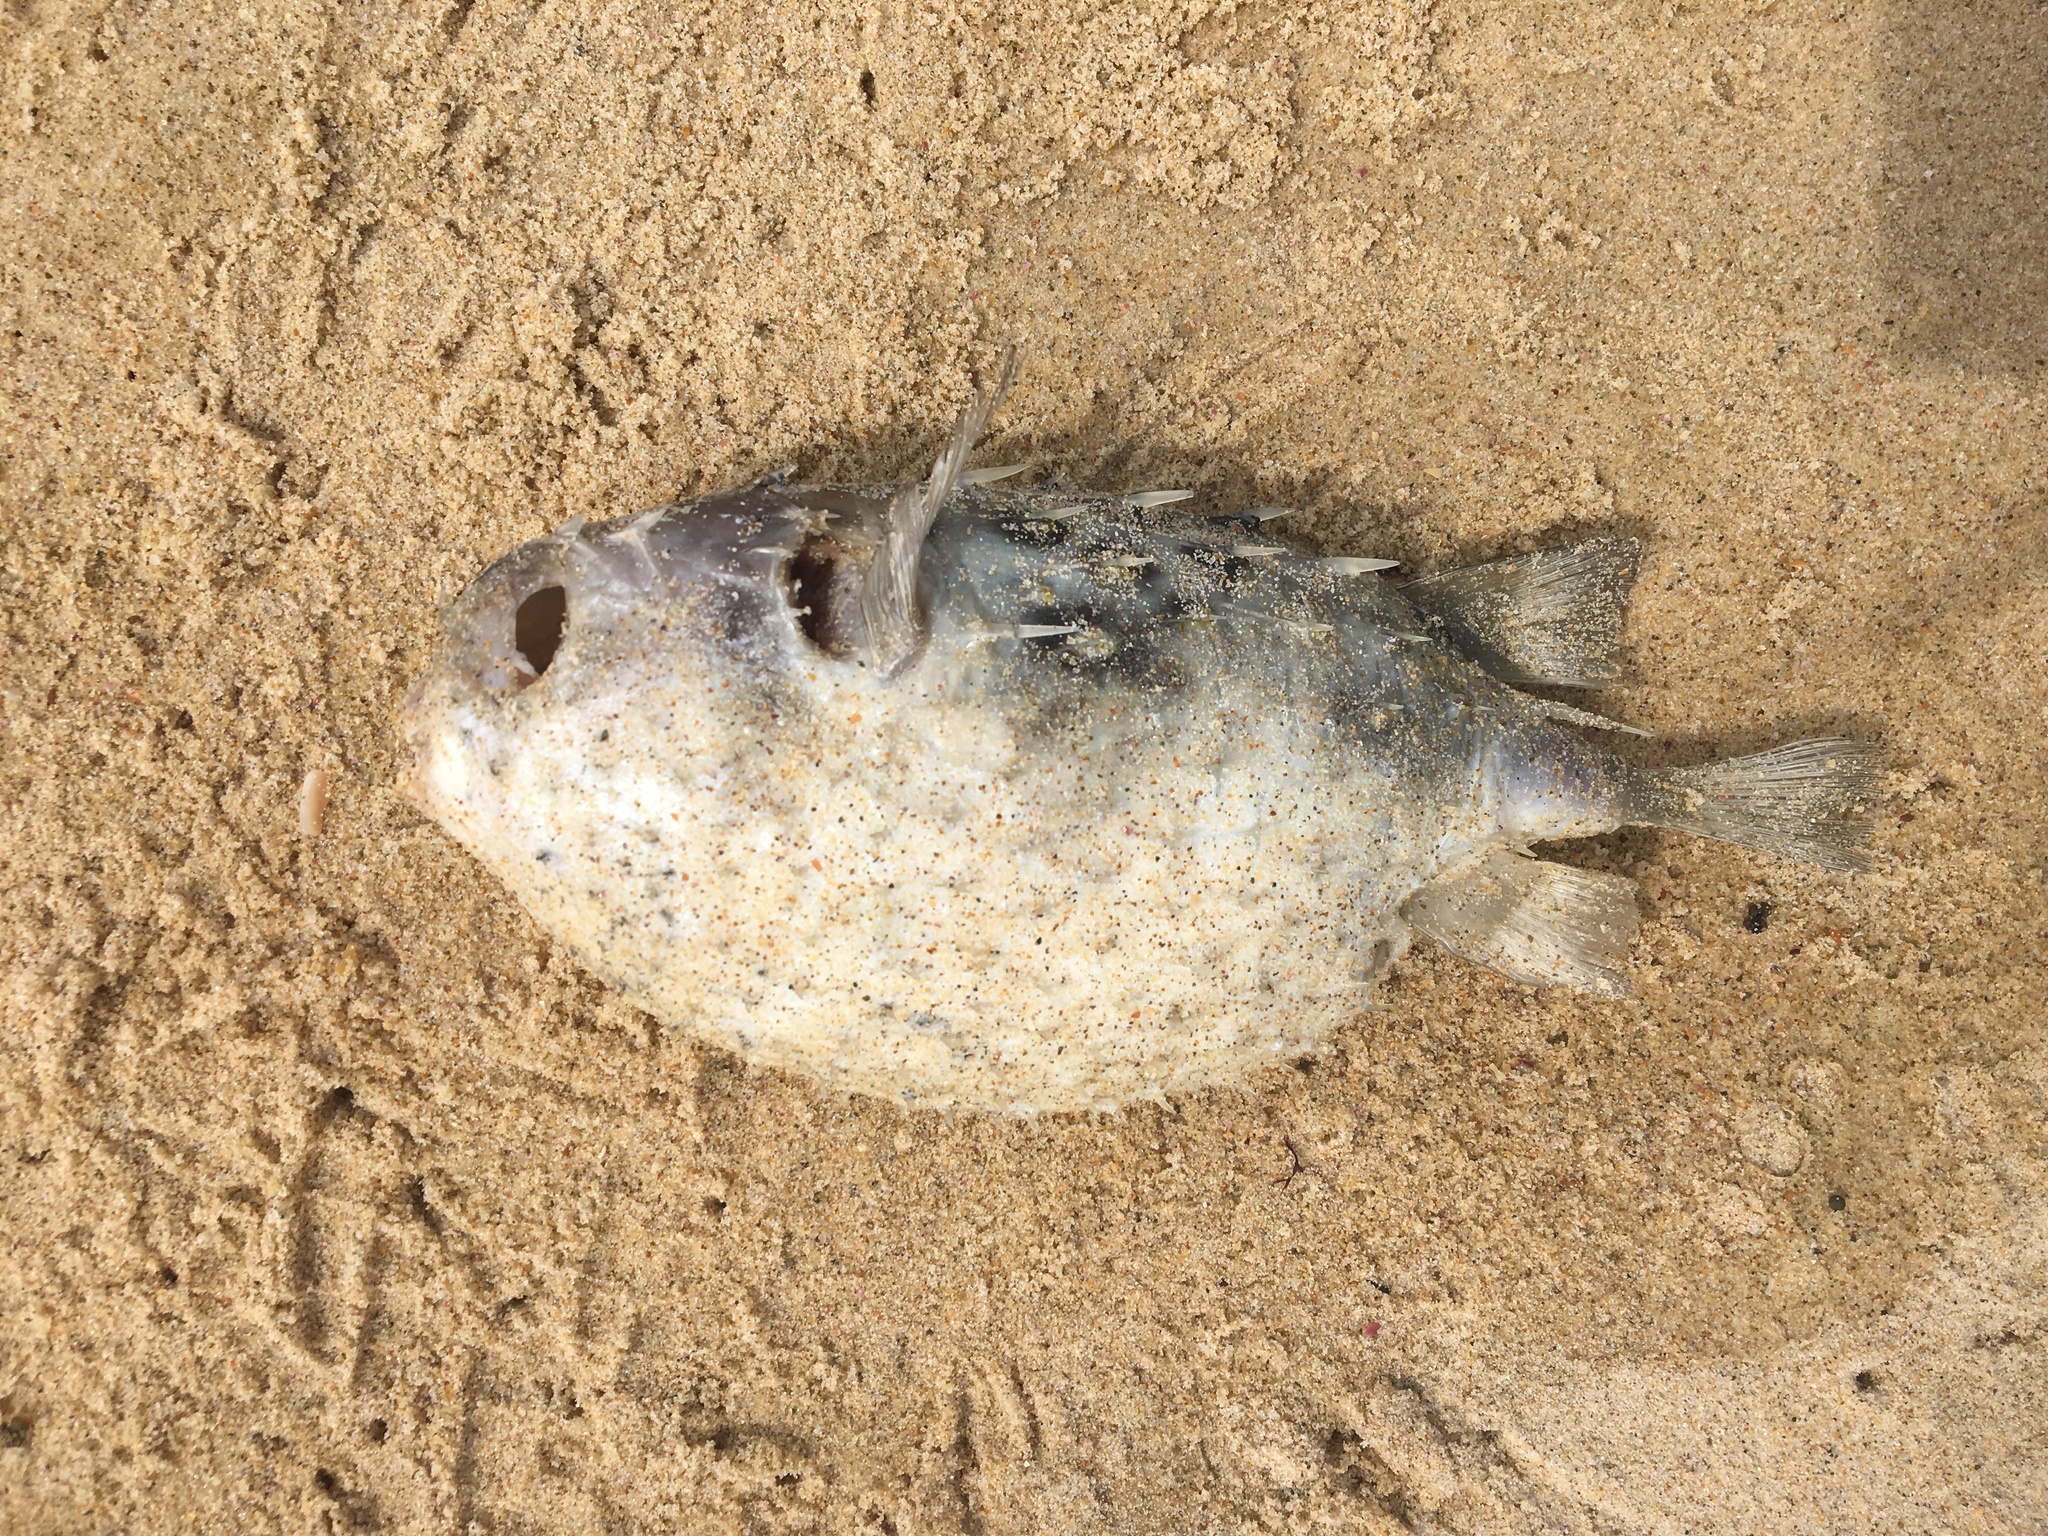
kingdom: Animalia
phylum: Chordata
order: Tetraodontiformes
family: Diodontidae
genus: Allomycterus
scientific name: Allomycterus pilatus
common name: No common name
